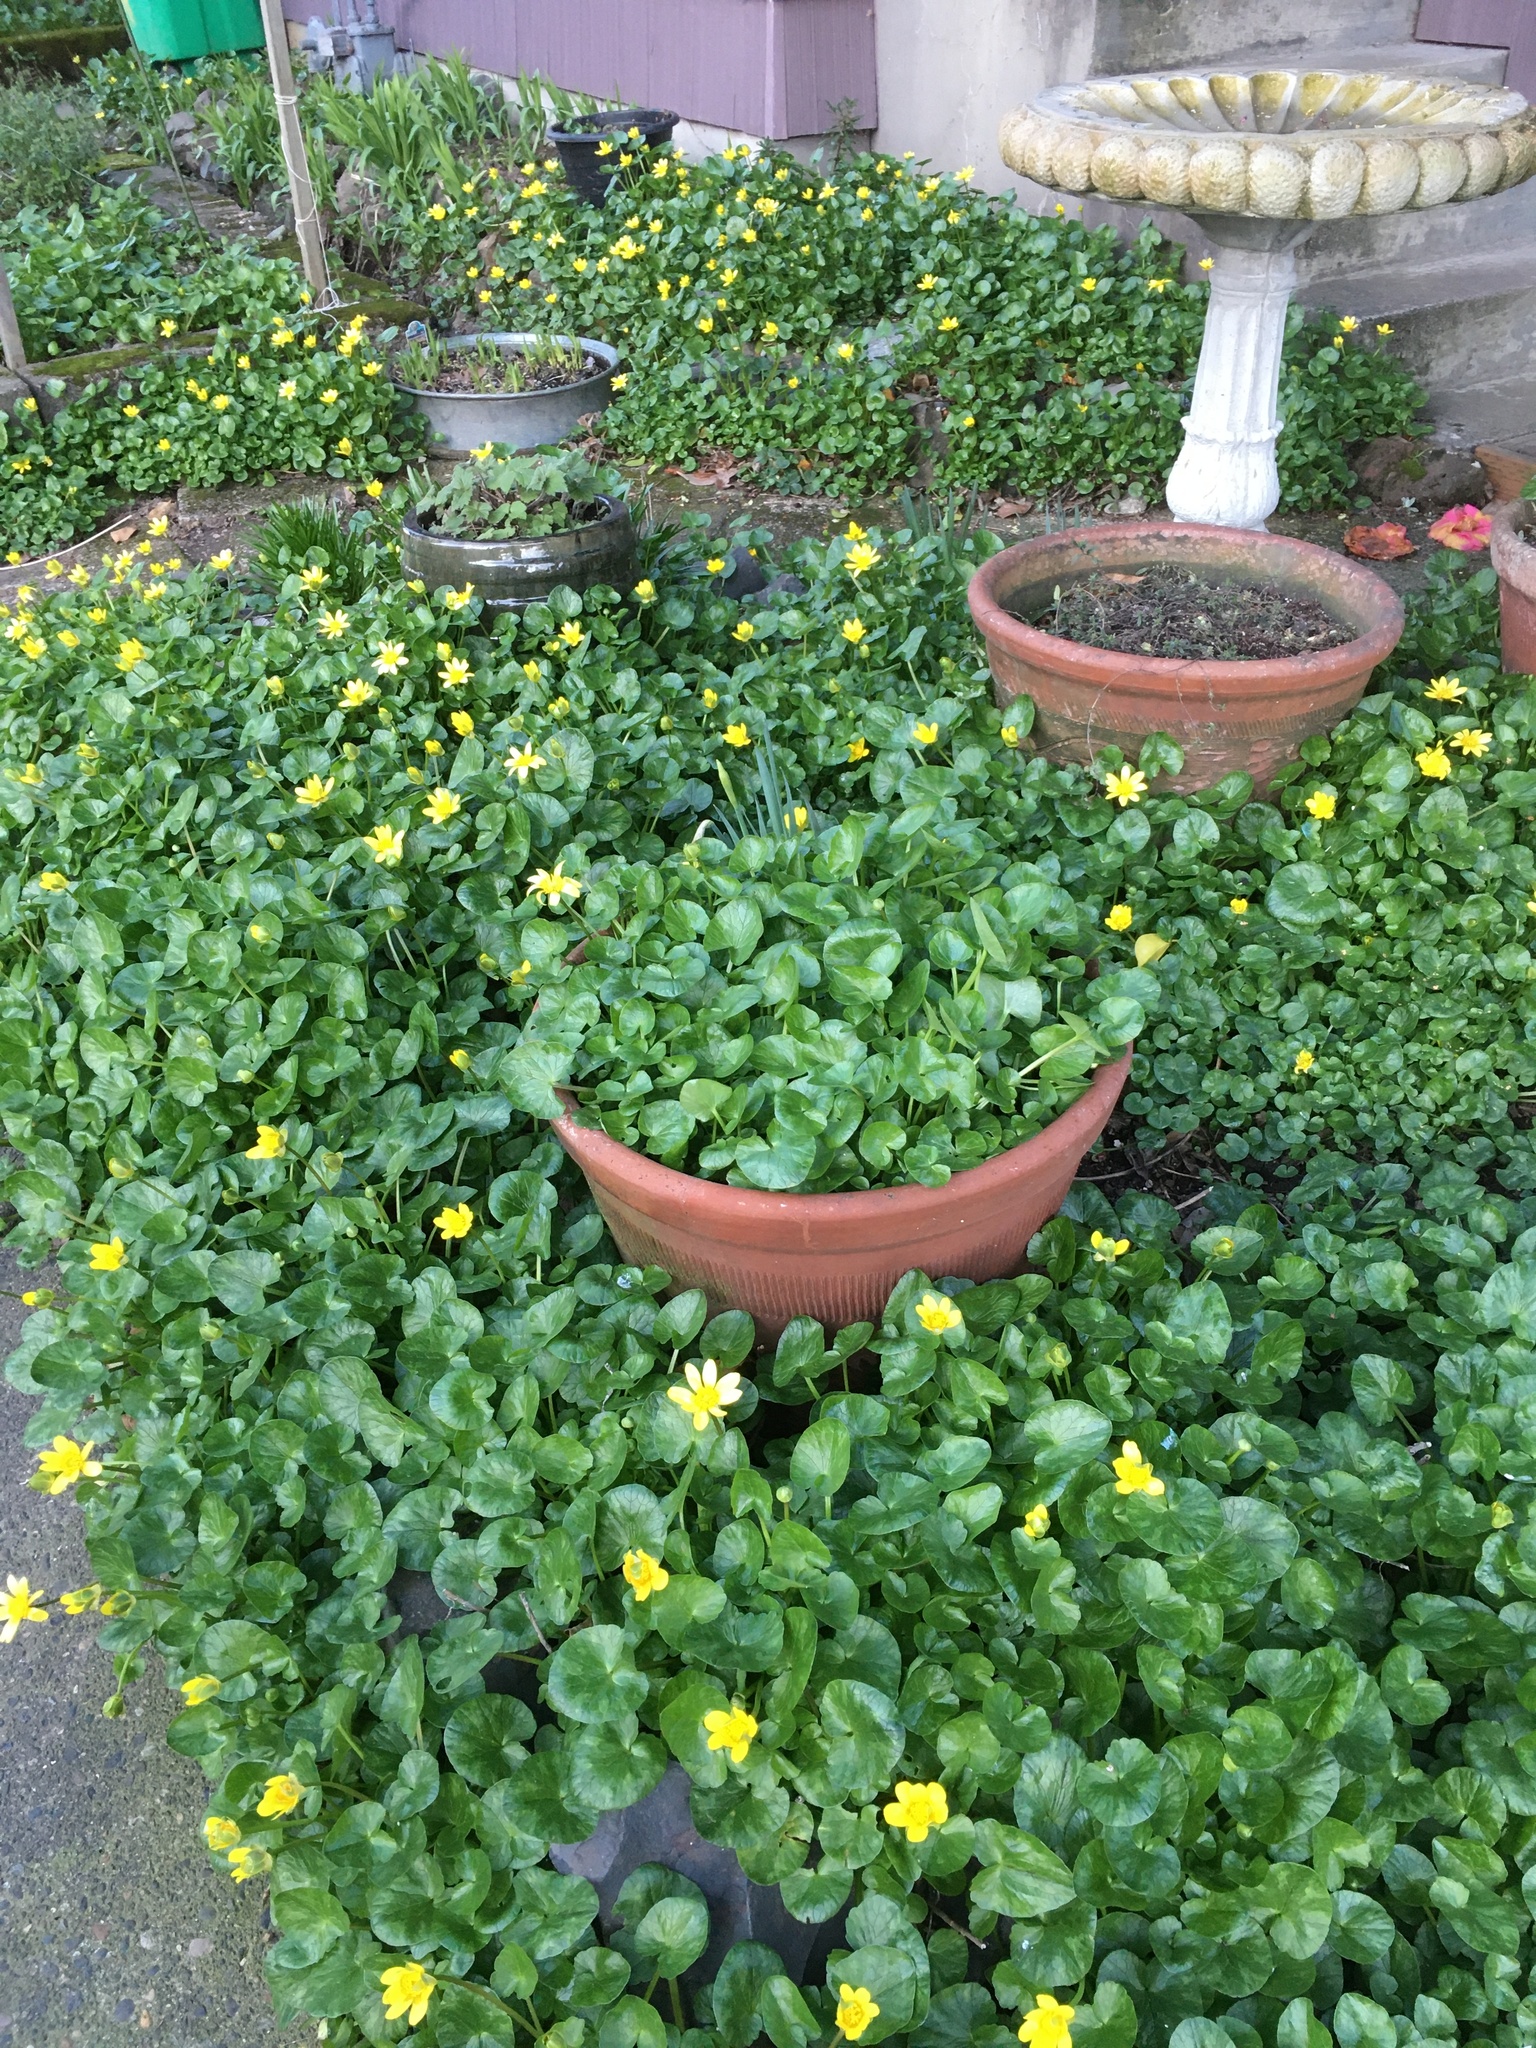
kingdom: Plantae
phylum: Tracheophyta
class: Magnoliopsida
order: Ranunculales
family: Ranunculaceae
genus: Ficaria
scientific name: Ficaria verna
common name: Lesser celandine
